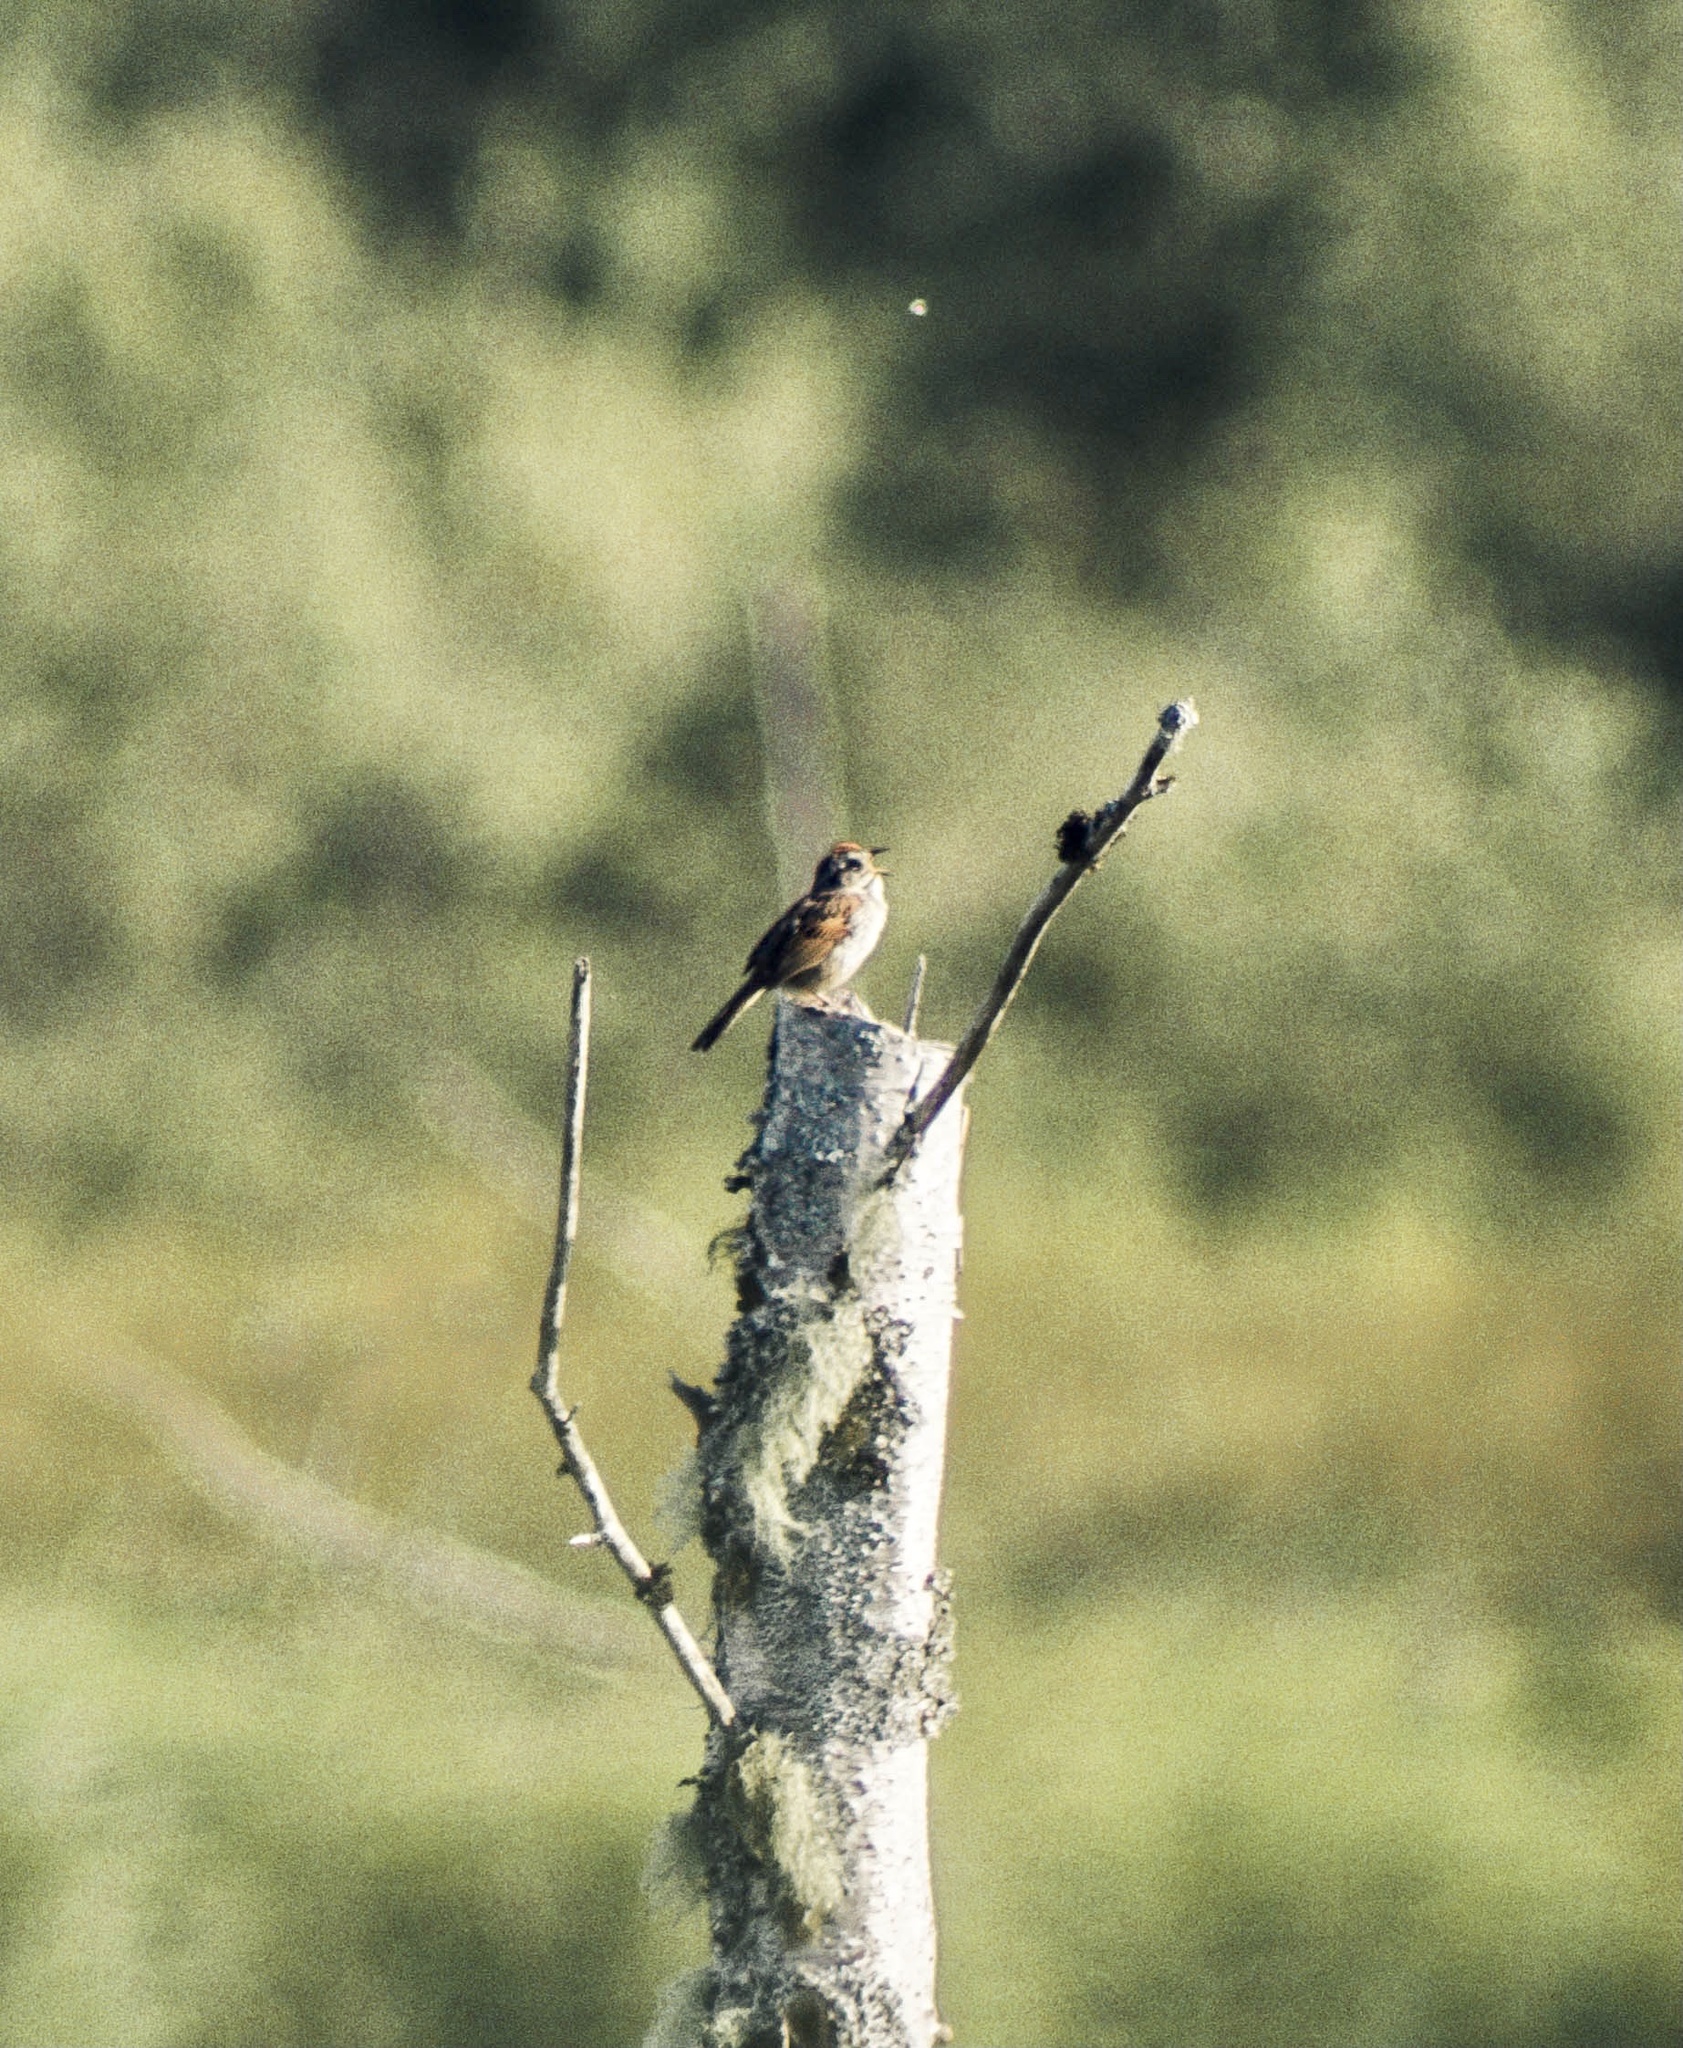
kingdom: Animalia
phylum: Chordata
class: Aves
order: Passeriformes
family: Passerellidae
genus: Spizella
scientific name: Spizella passerina
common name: Chipping sparrow
